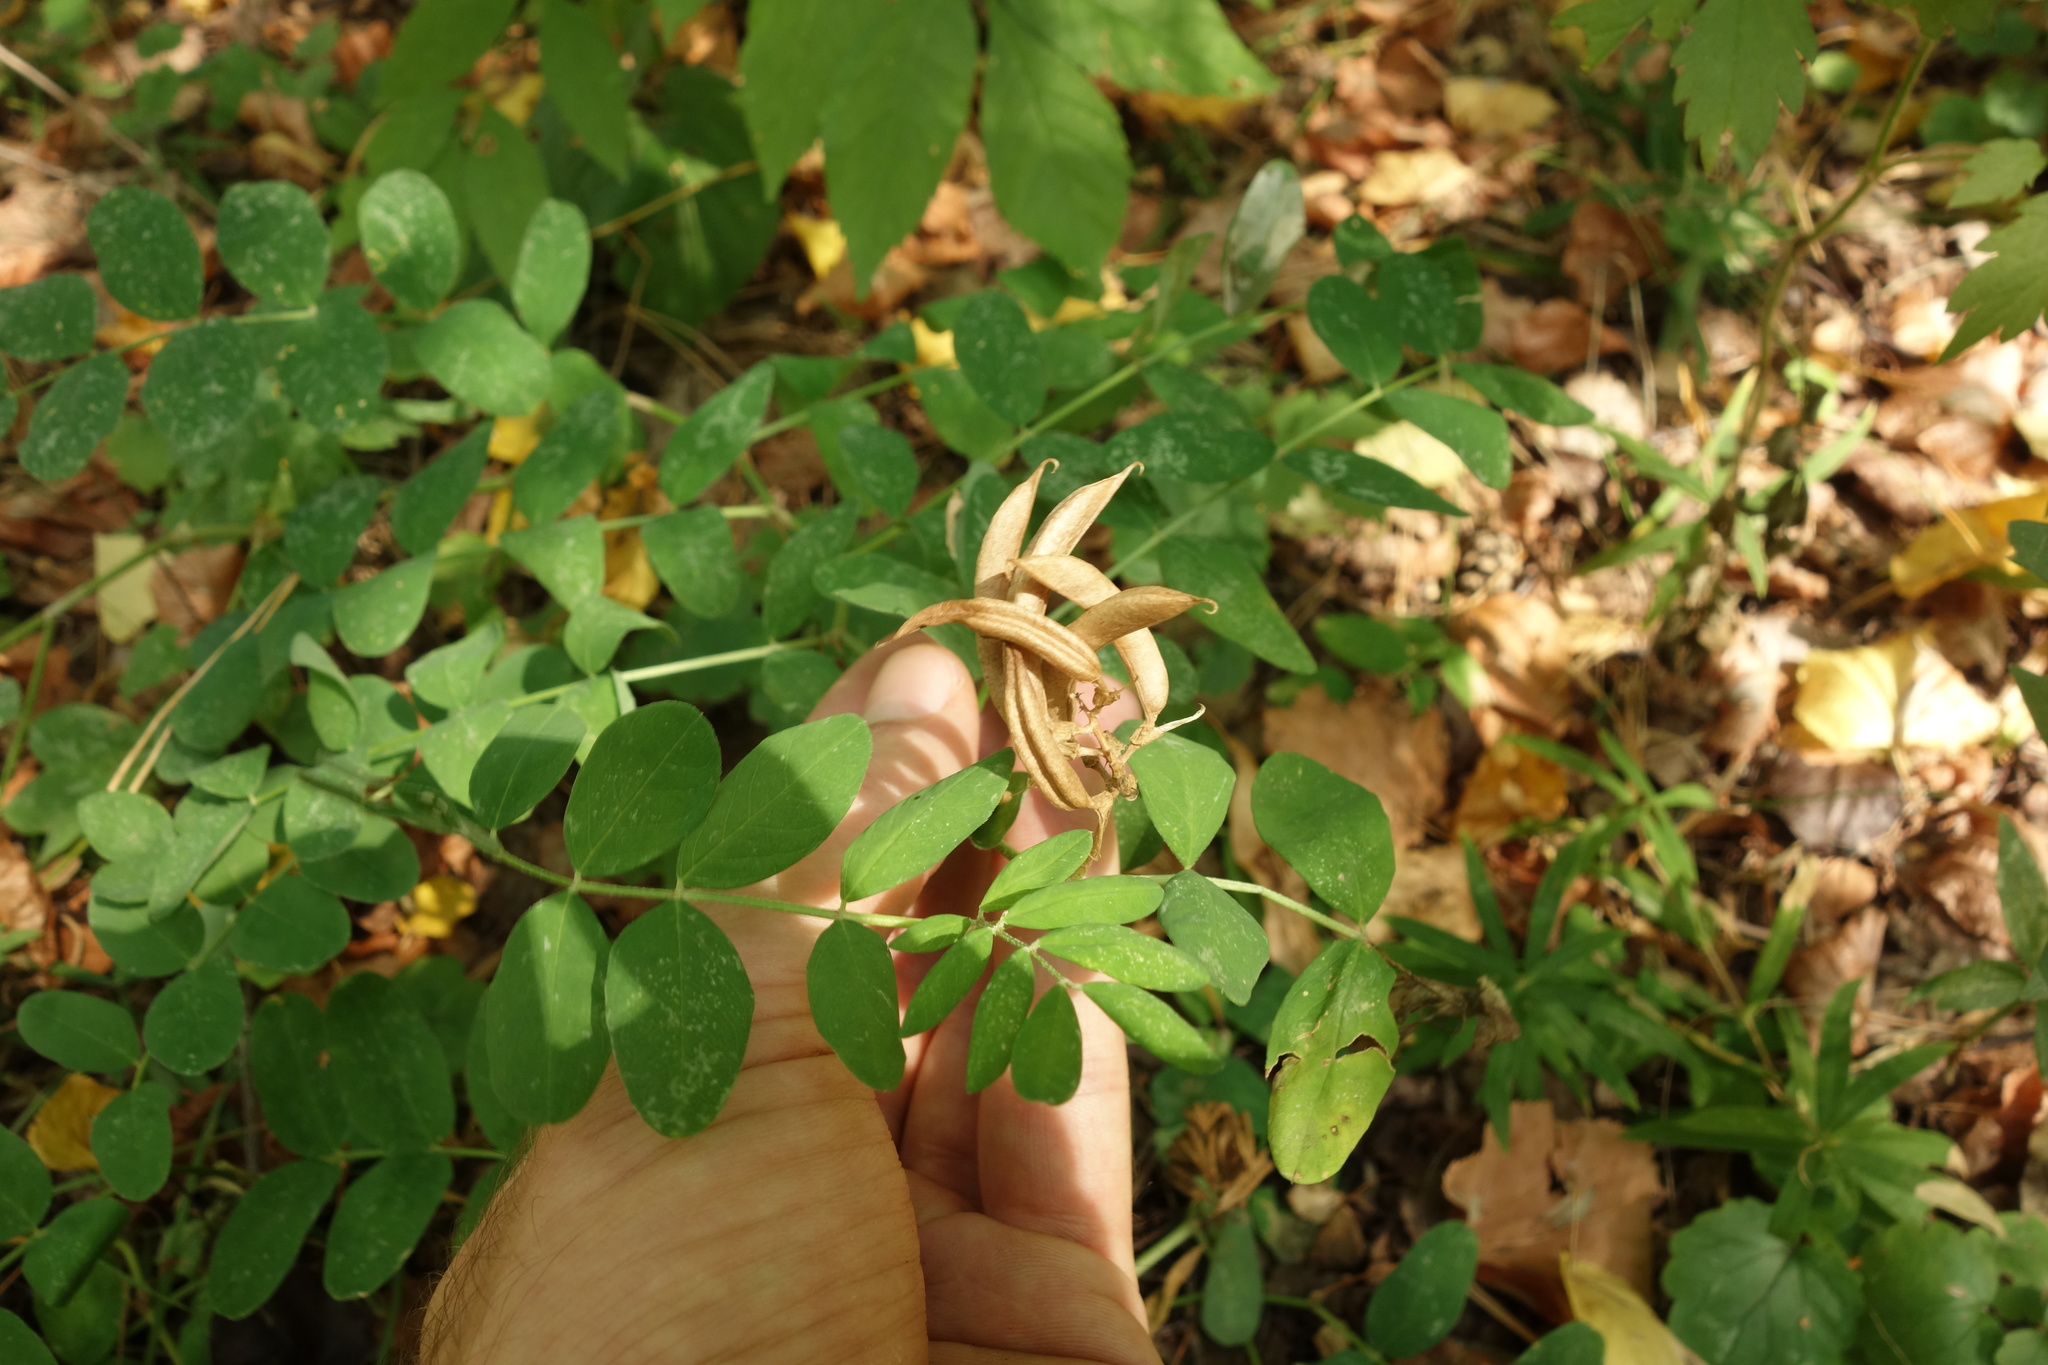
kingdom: Plantae
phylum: Tracheophyta
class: Magnoliopsida
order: Fabales
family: Fabaceae
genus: Astragalus
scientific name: Astragalus glycyphyllos
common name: Wild liquorice
